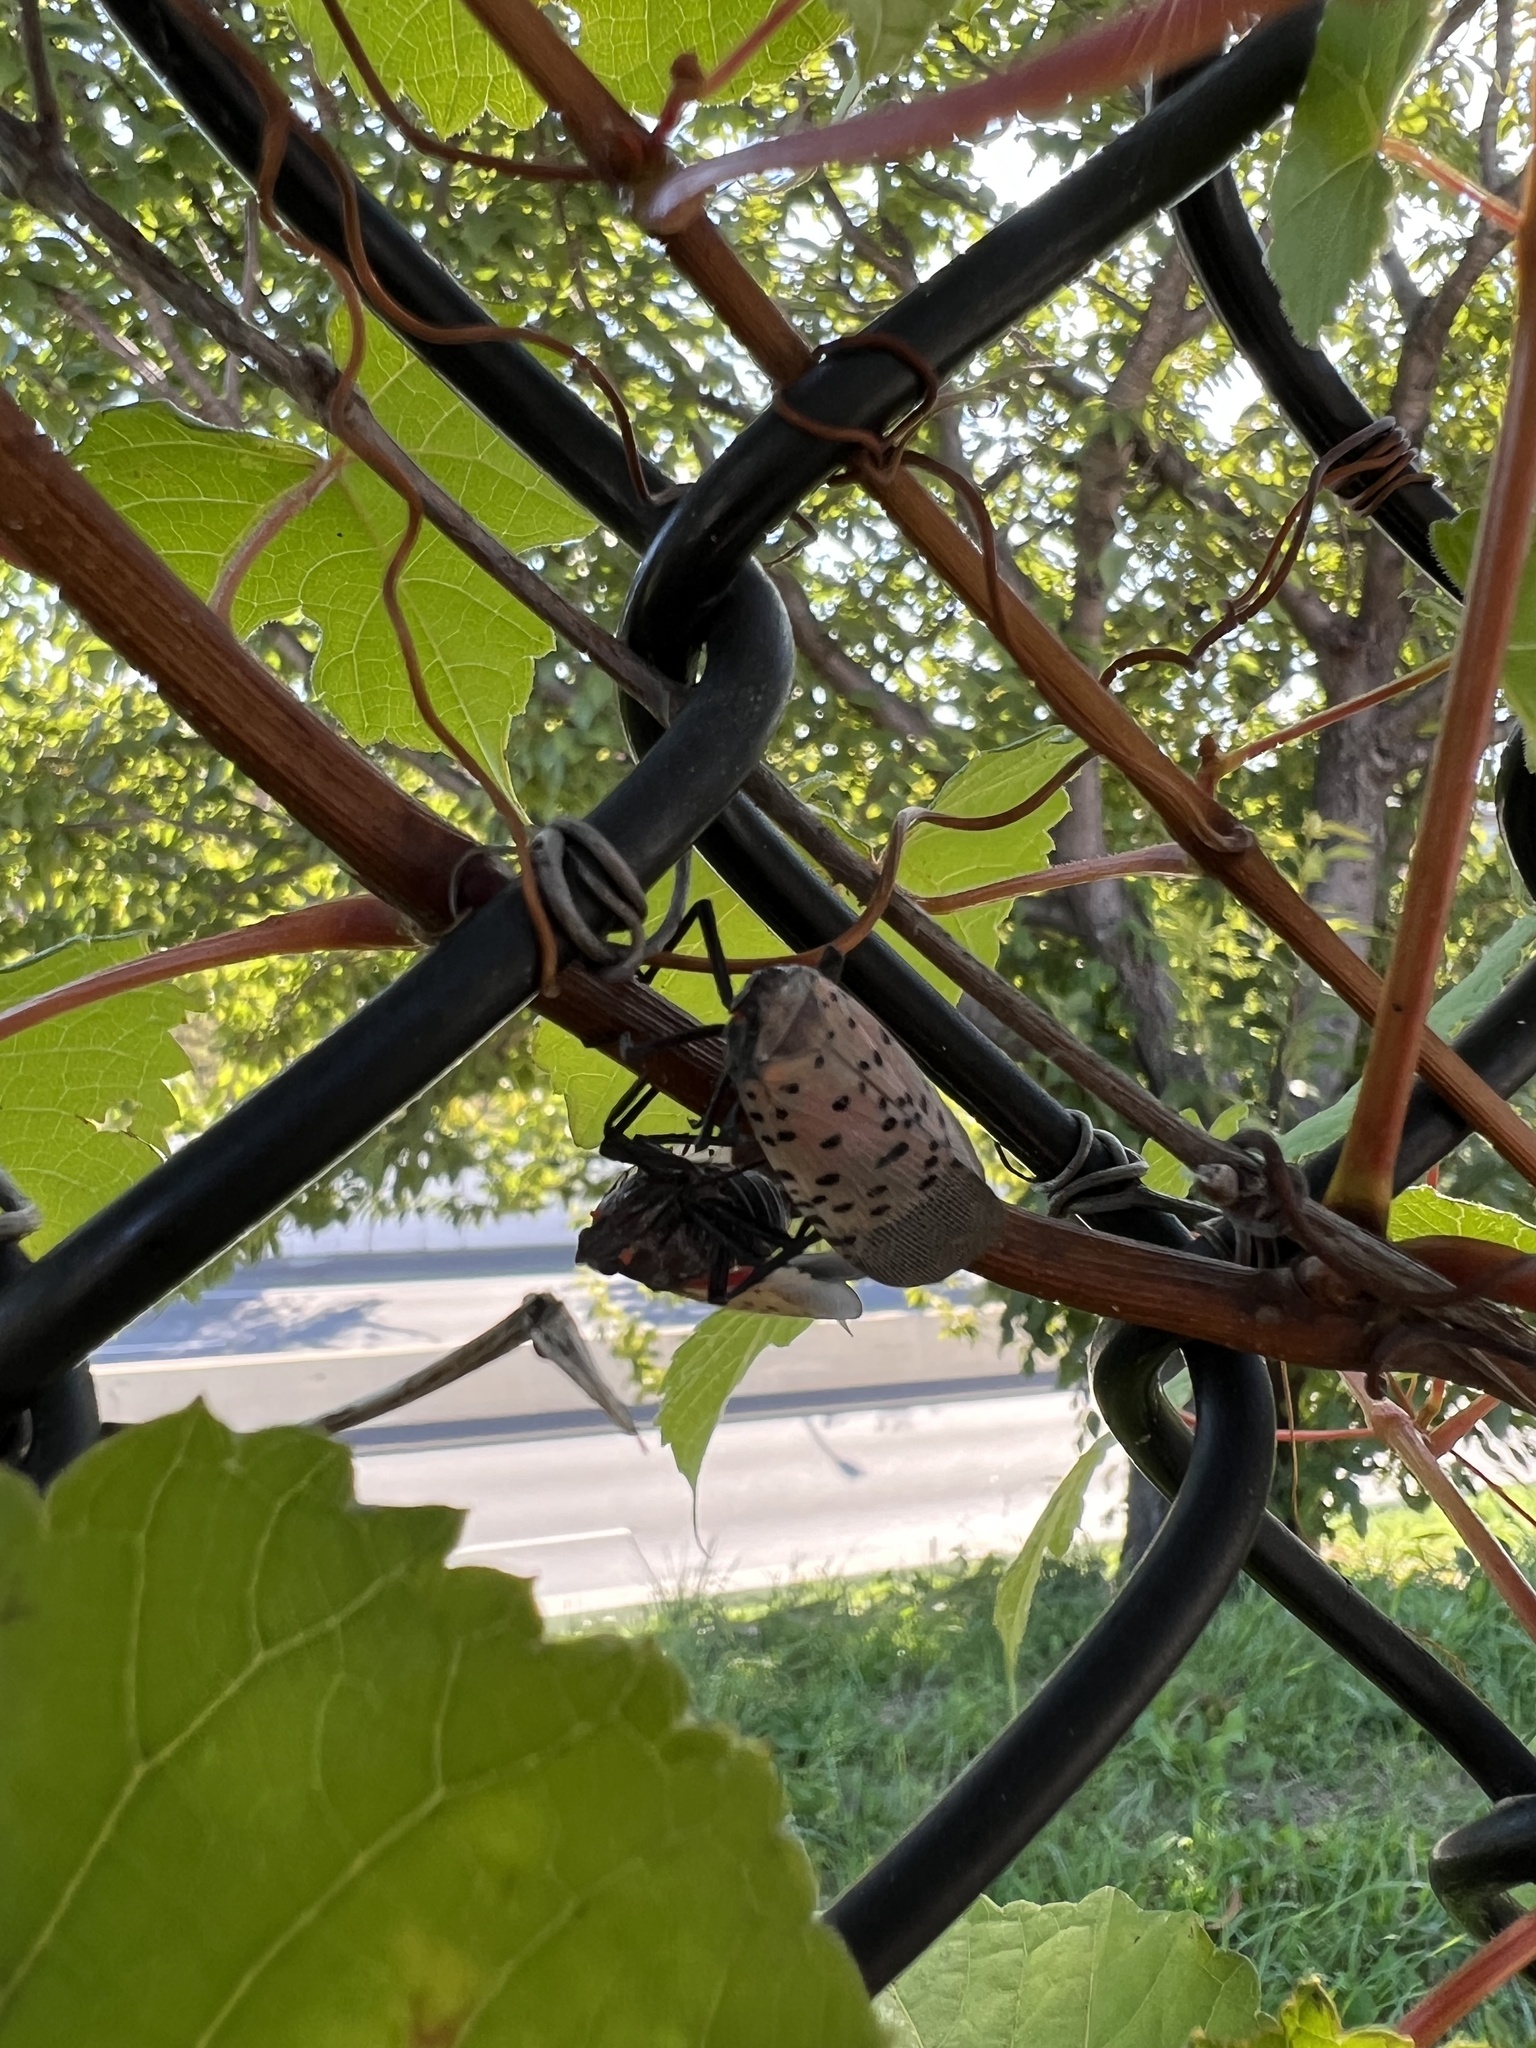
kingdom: Animalia
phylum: Arthropoda
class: Insecta
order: Hemiptera
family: Fulgoridae
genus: Lycorma
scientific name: Lycorma delicatula
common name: Spotted lanternfly
